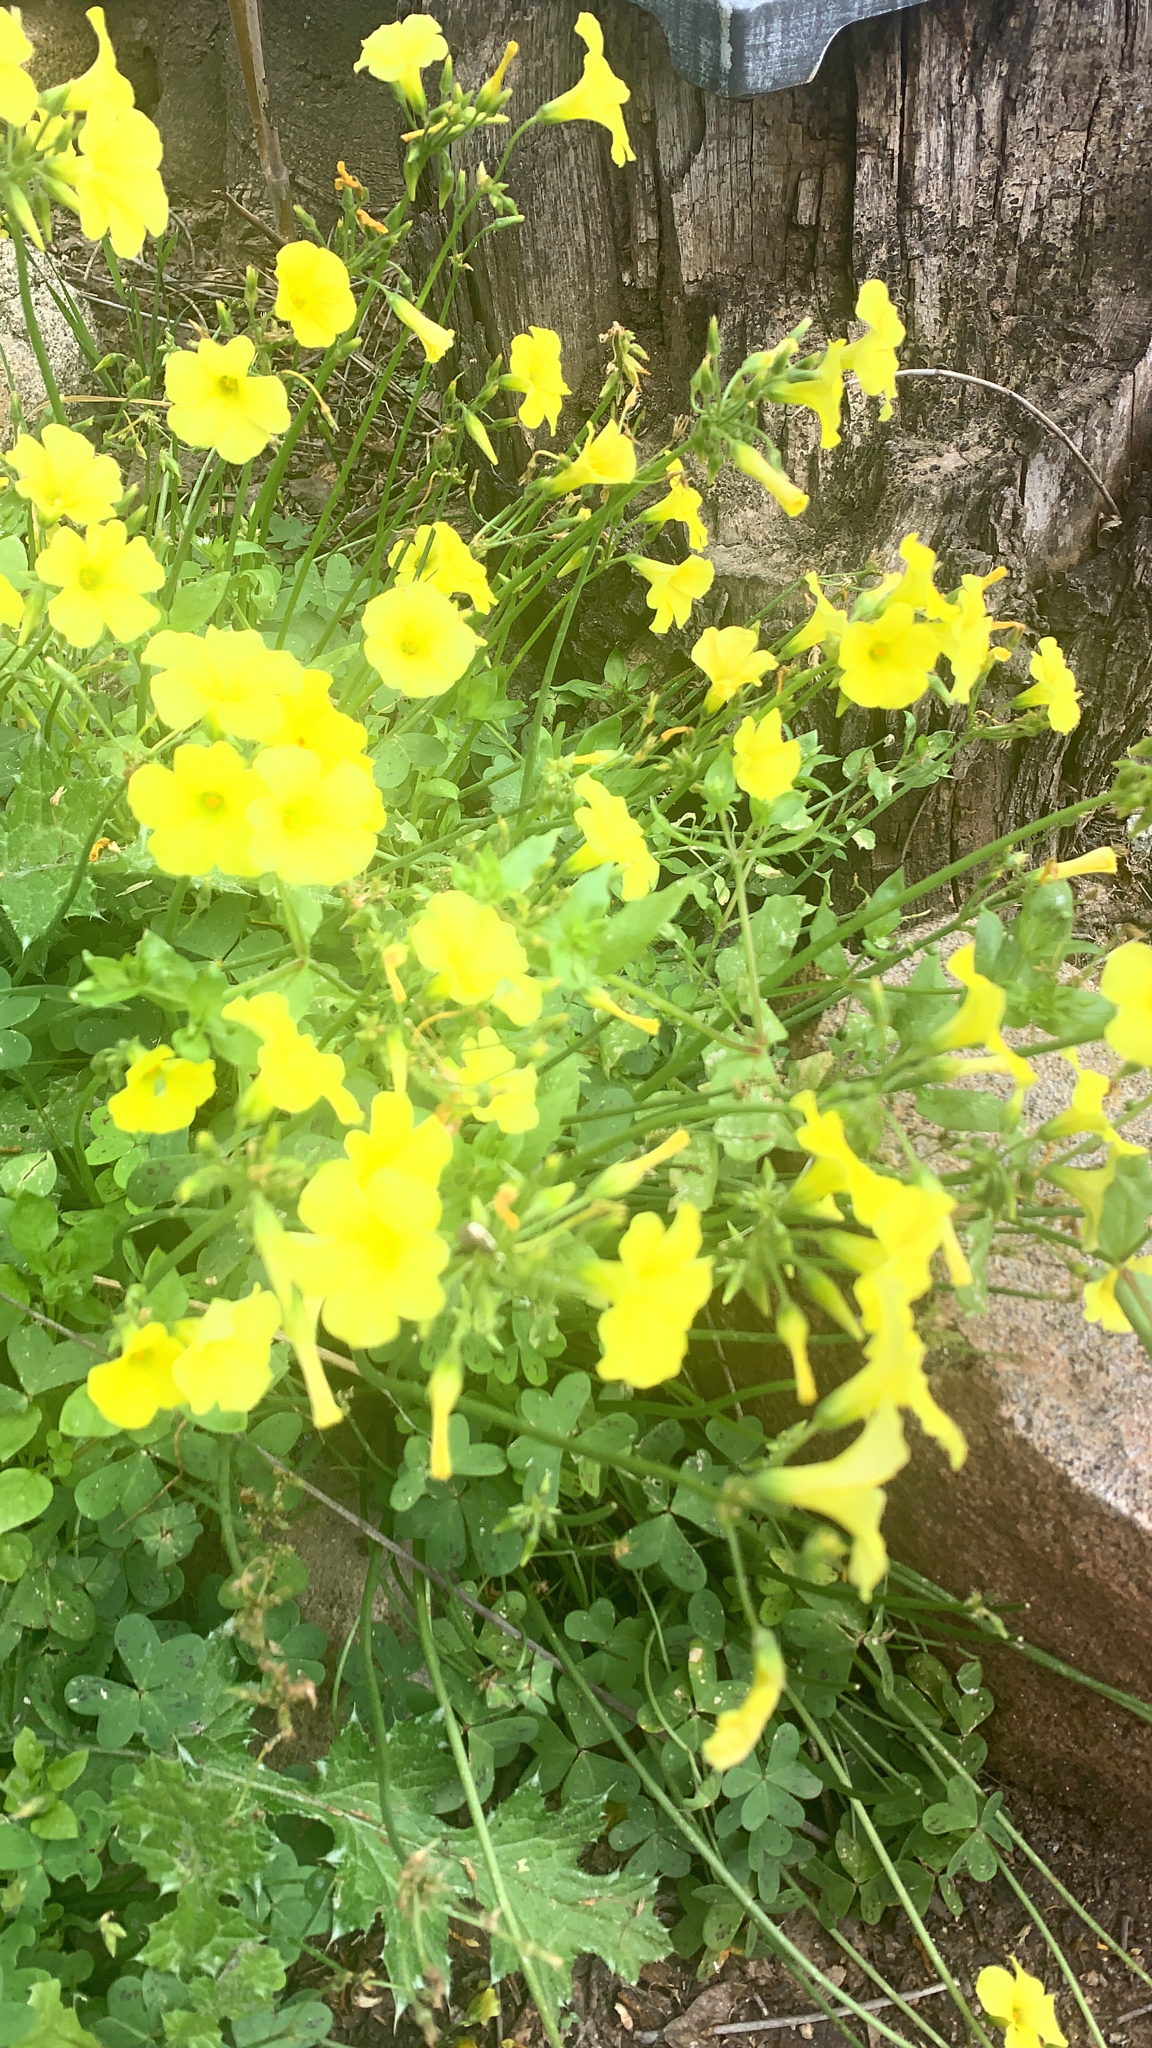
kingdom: Plantae
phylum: Tracheophyta
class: Magnoliopsida
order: Oxalidales
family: Oxalidaceae
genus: Oxalis
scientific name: Oxalis pes-caprae
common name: Bermuda-buttercup
